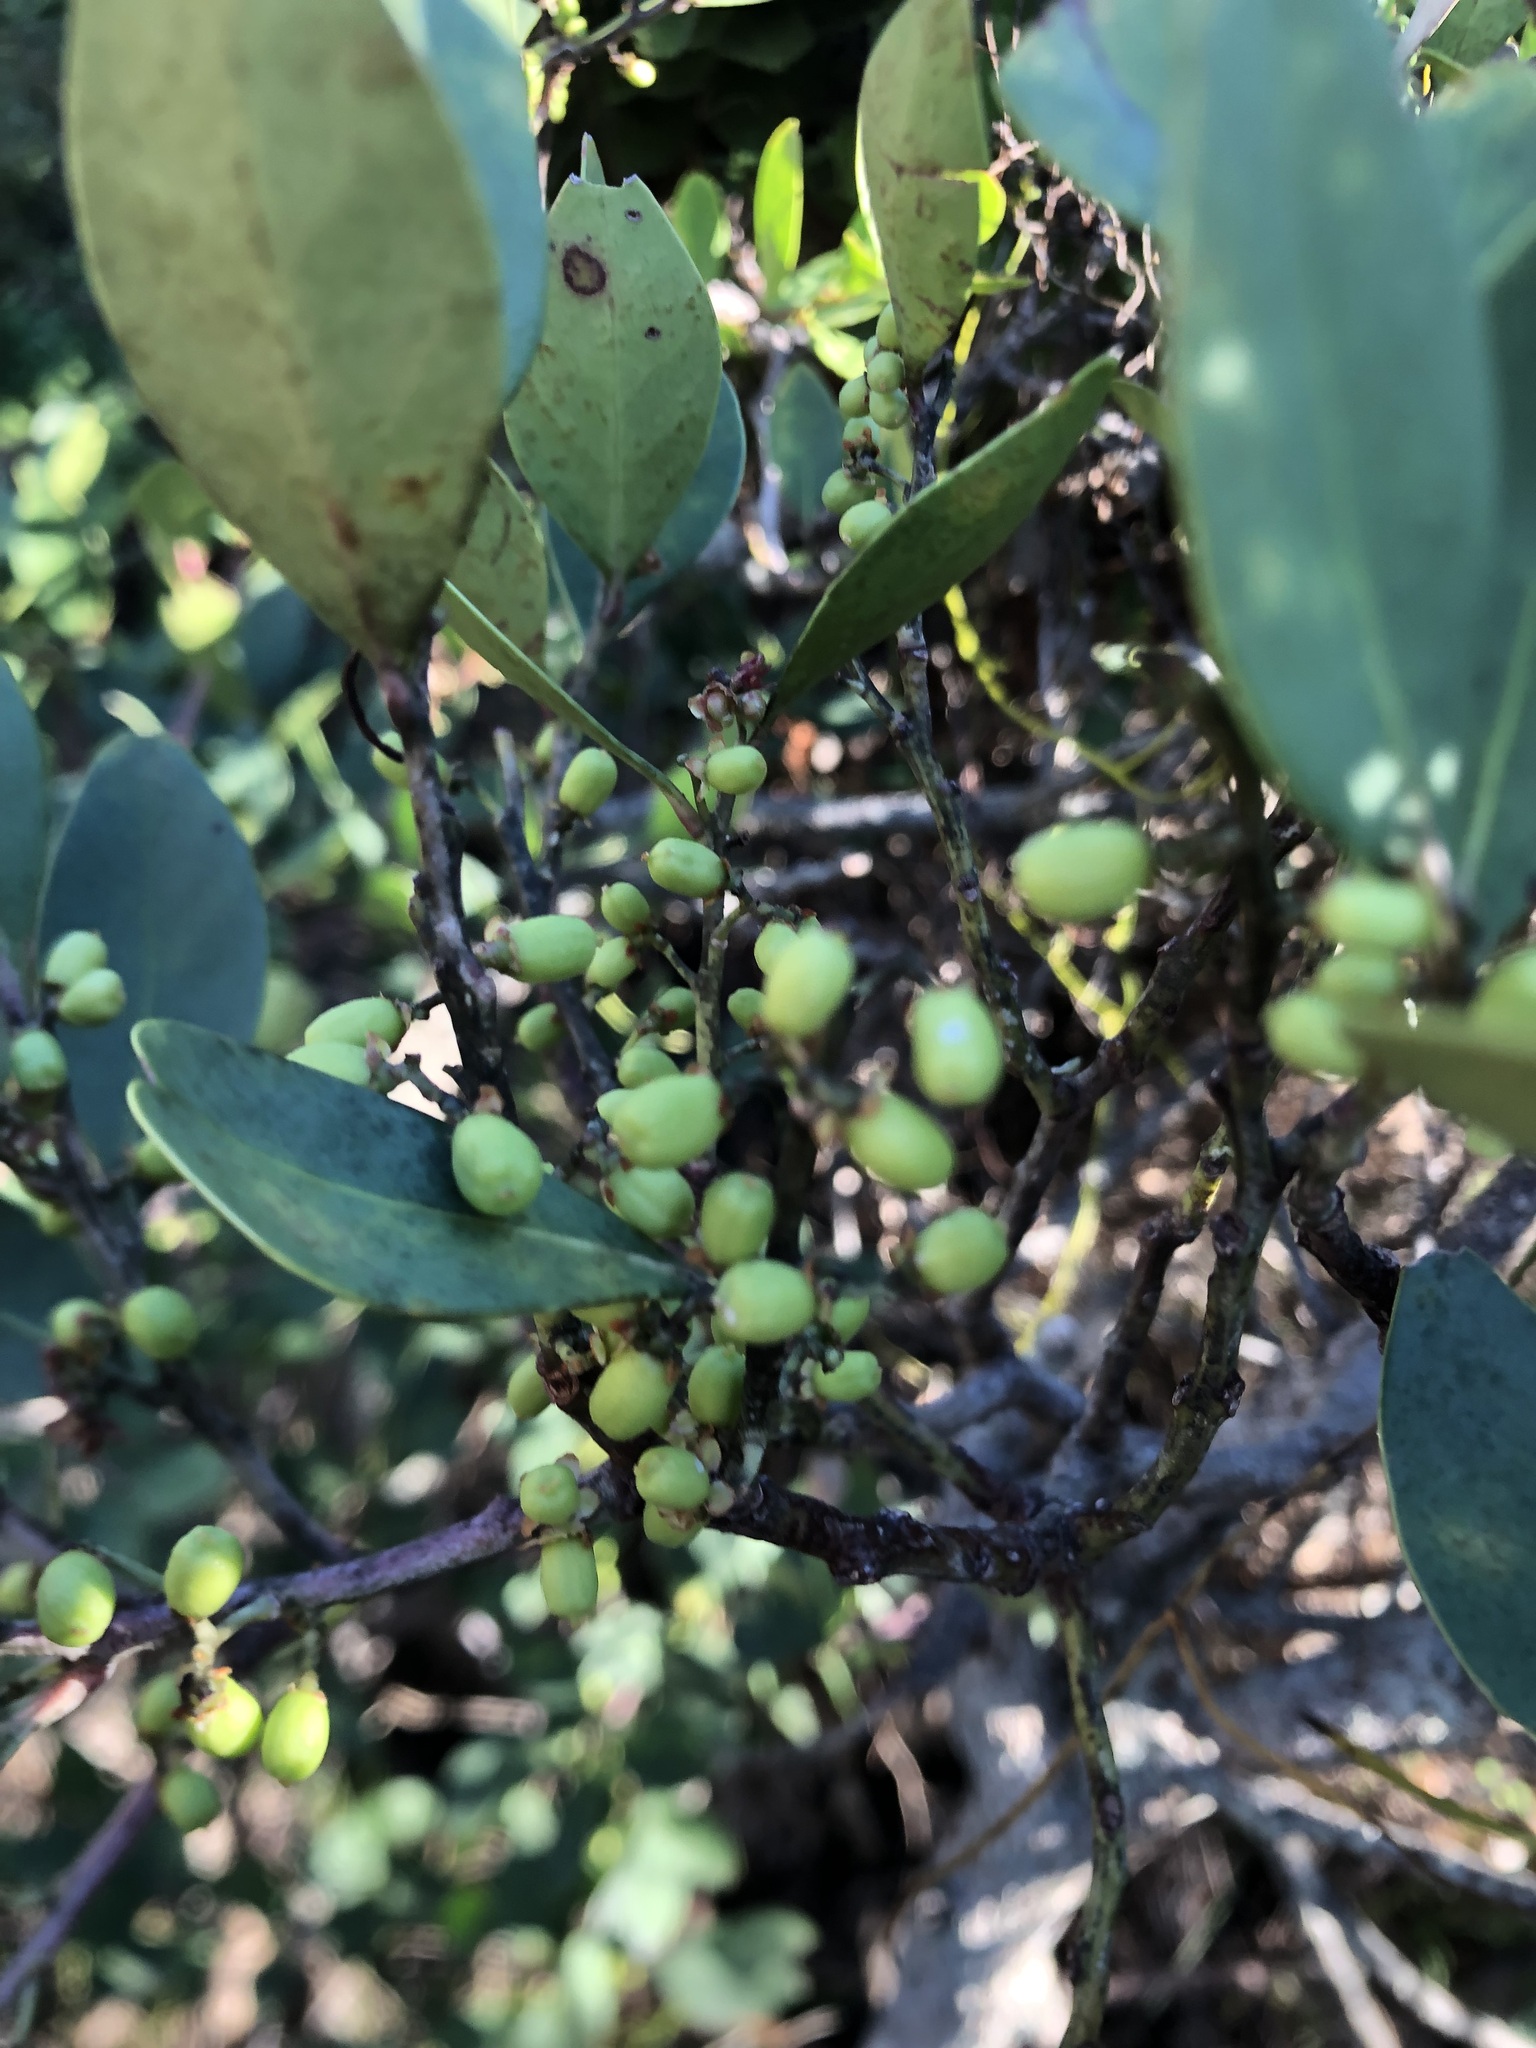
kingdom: Plantae
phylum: Tracheophyta
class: Magnoliopsida
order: Celastrales
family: Celastraceae
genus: Gymnosporia
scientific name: Gymnosporia laurina
